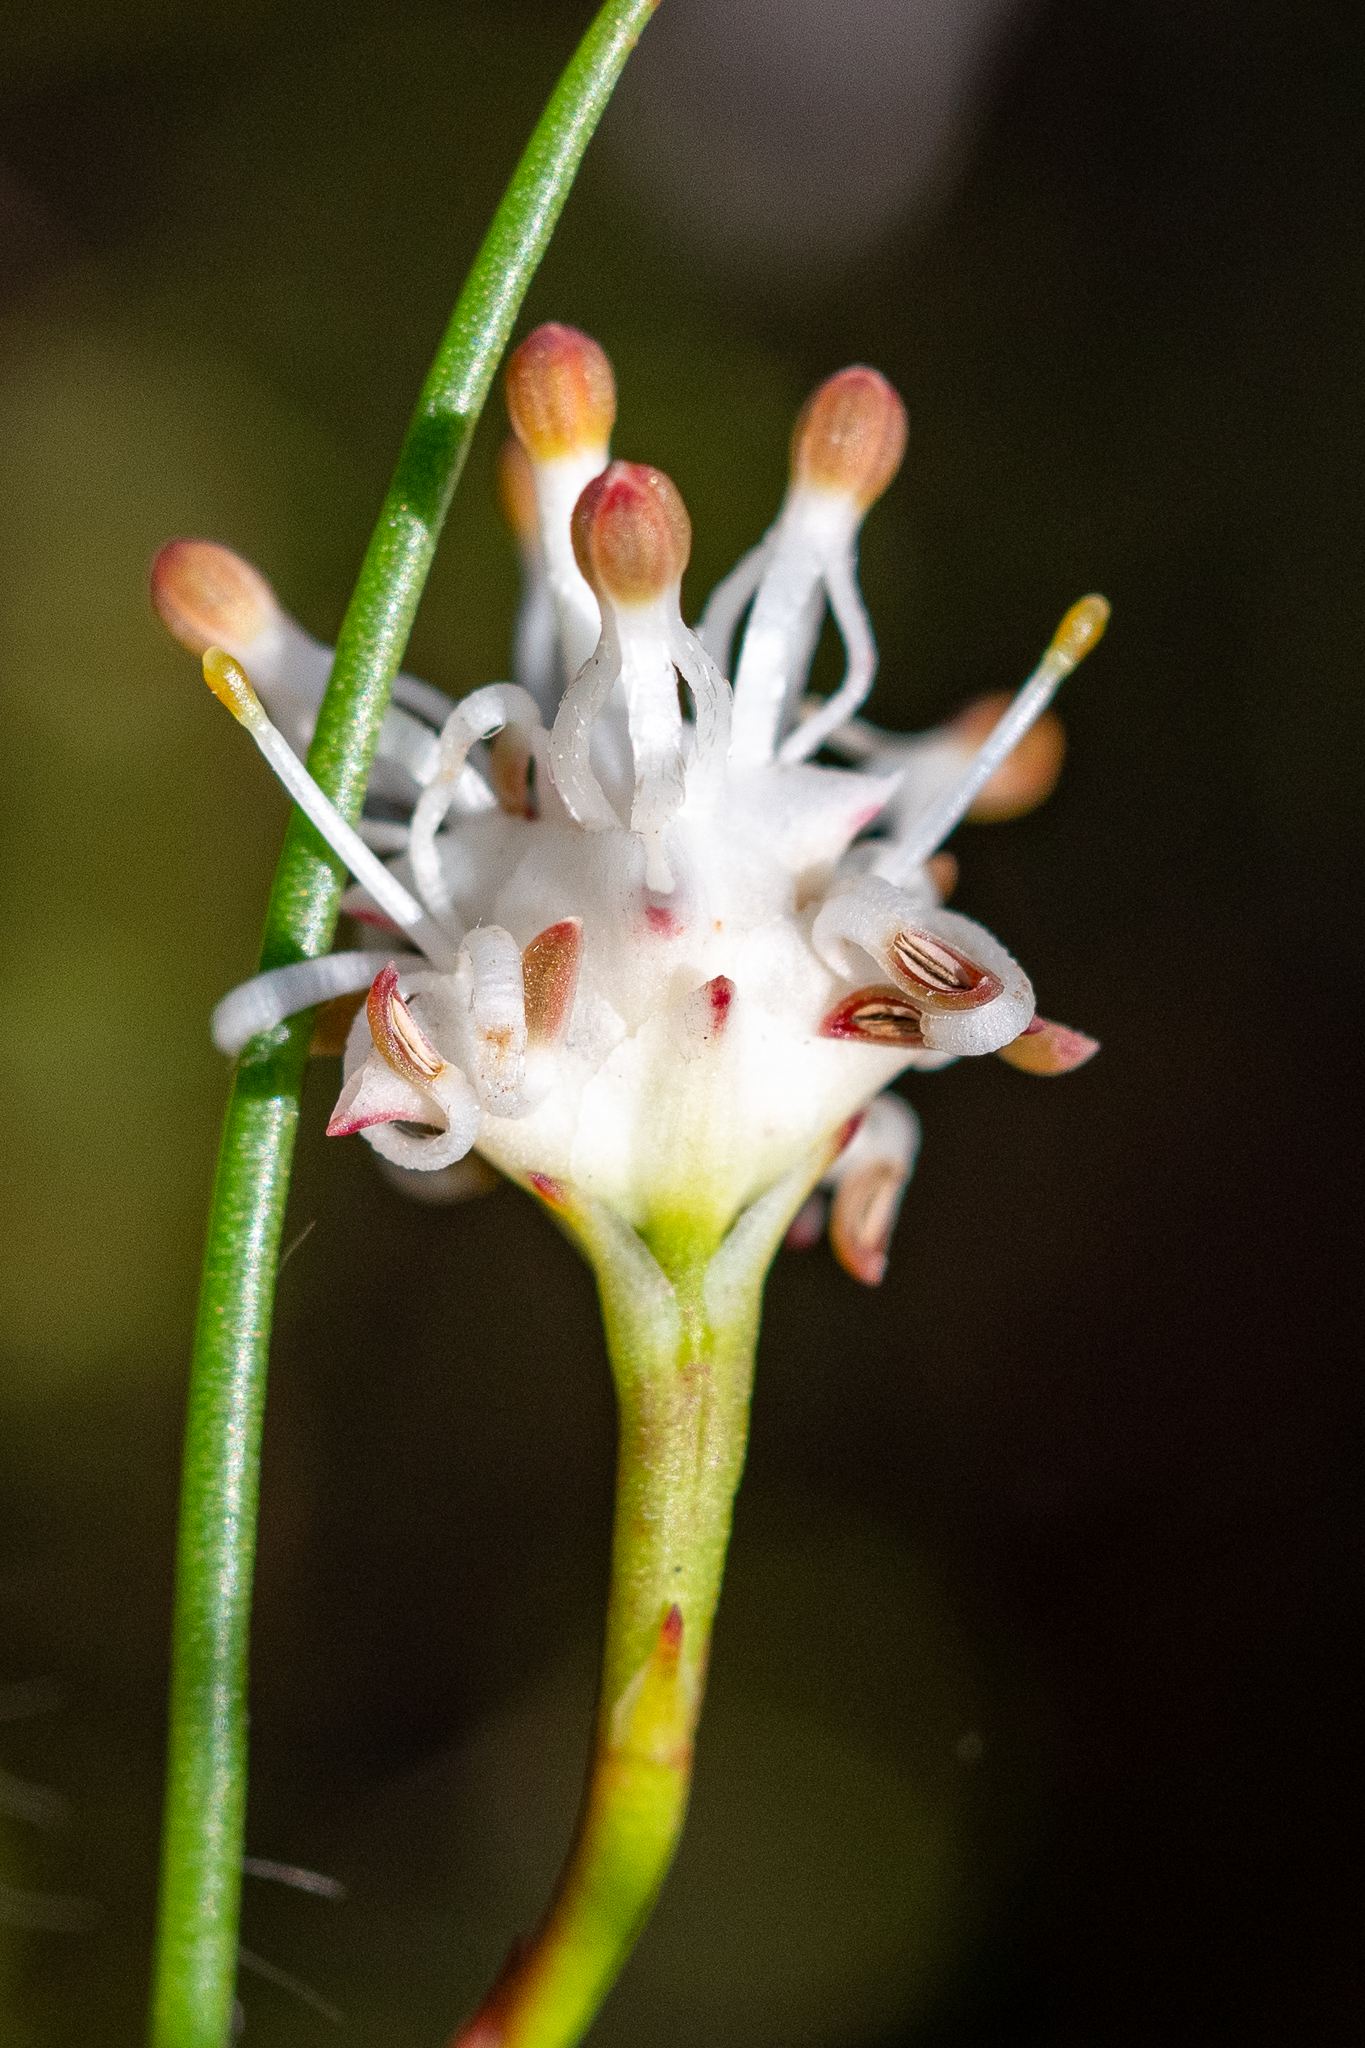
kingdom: Plantae
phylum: Tracheophyta
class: Magnoliopsida
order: Proteales
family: Proteaceae
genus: Serruria
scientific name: Serruria flagellifolia
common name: Houwhoek spiderhead
